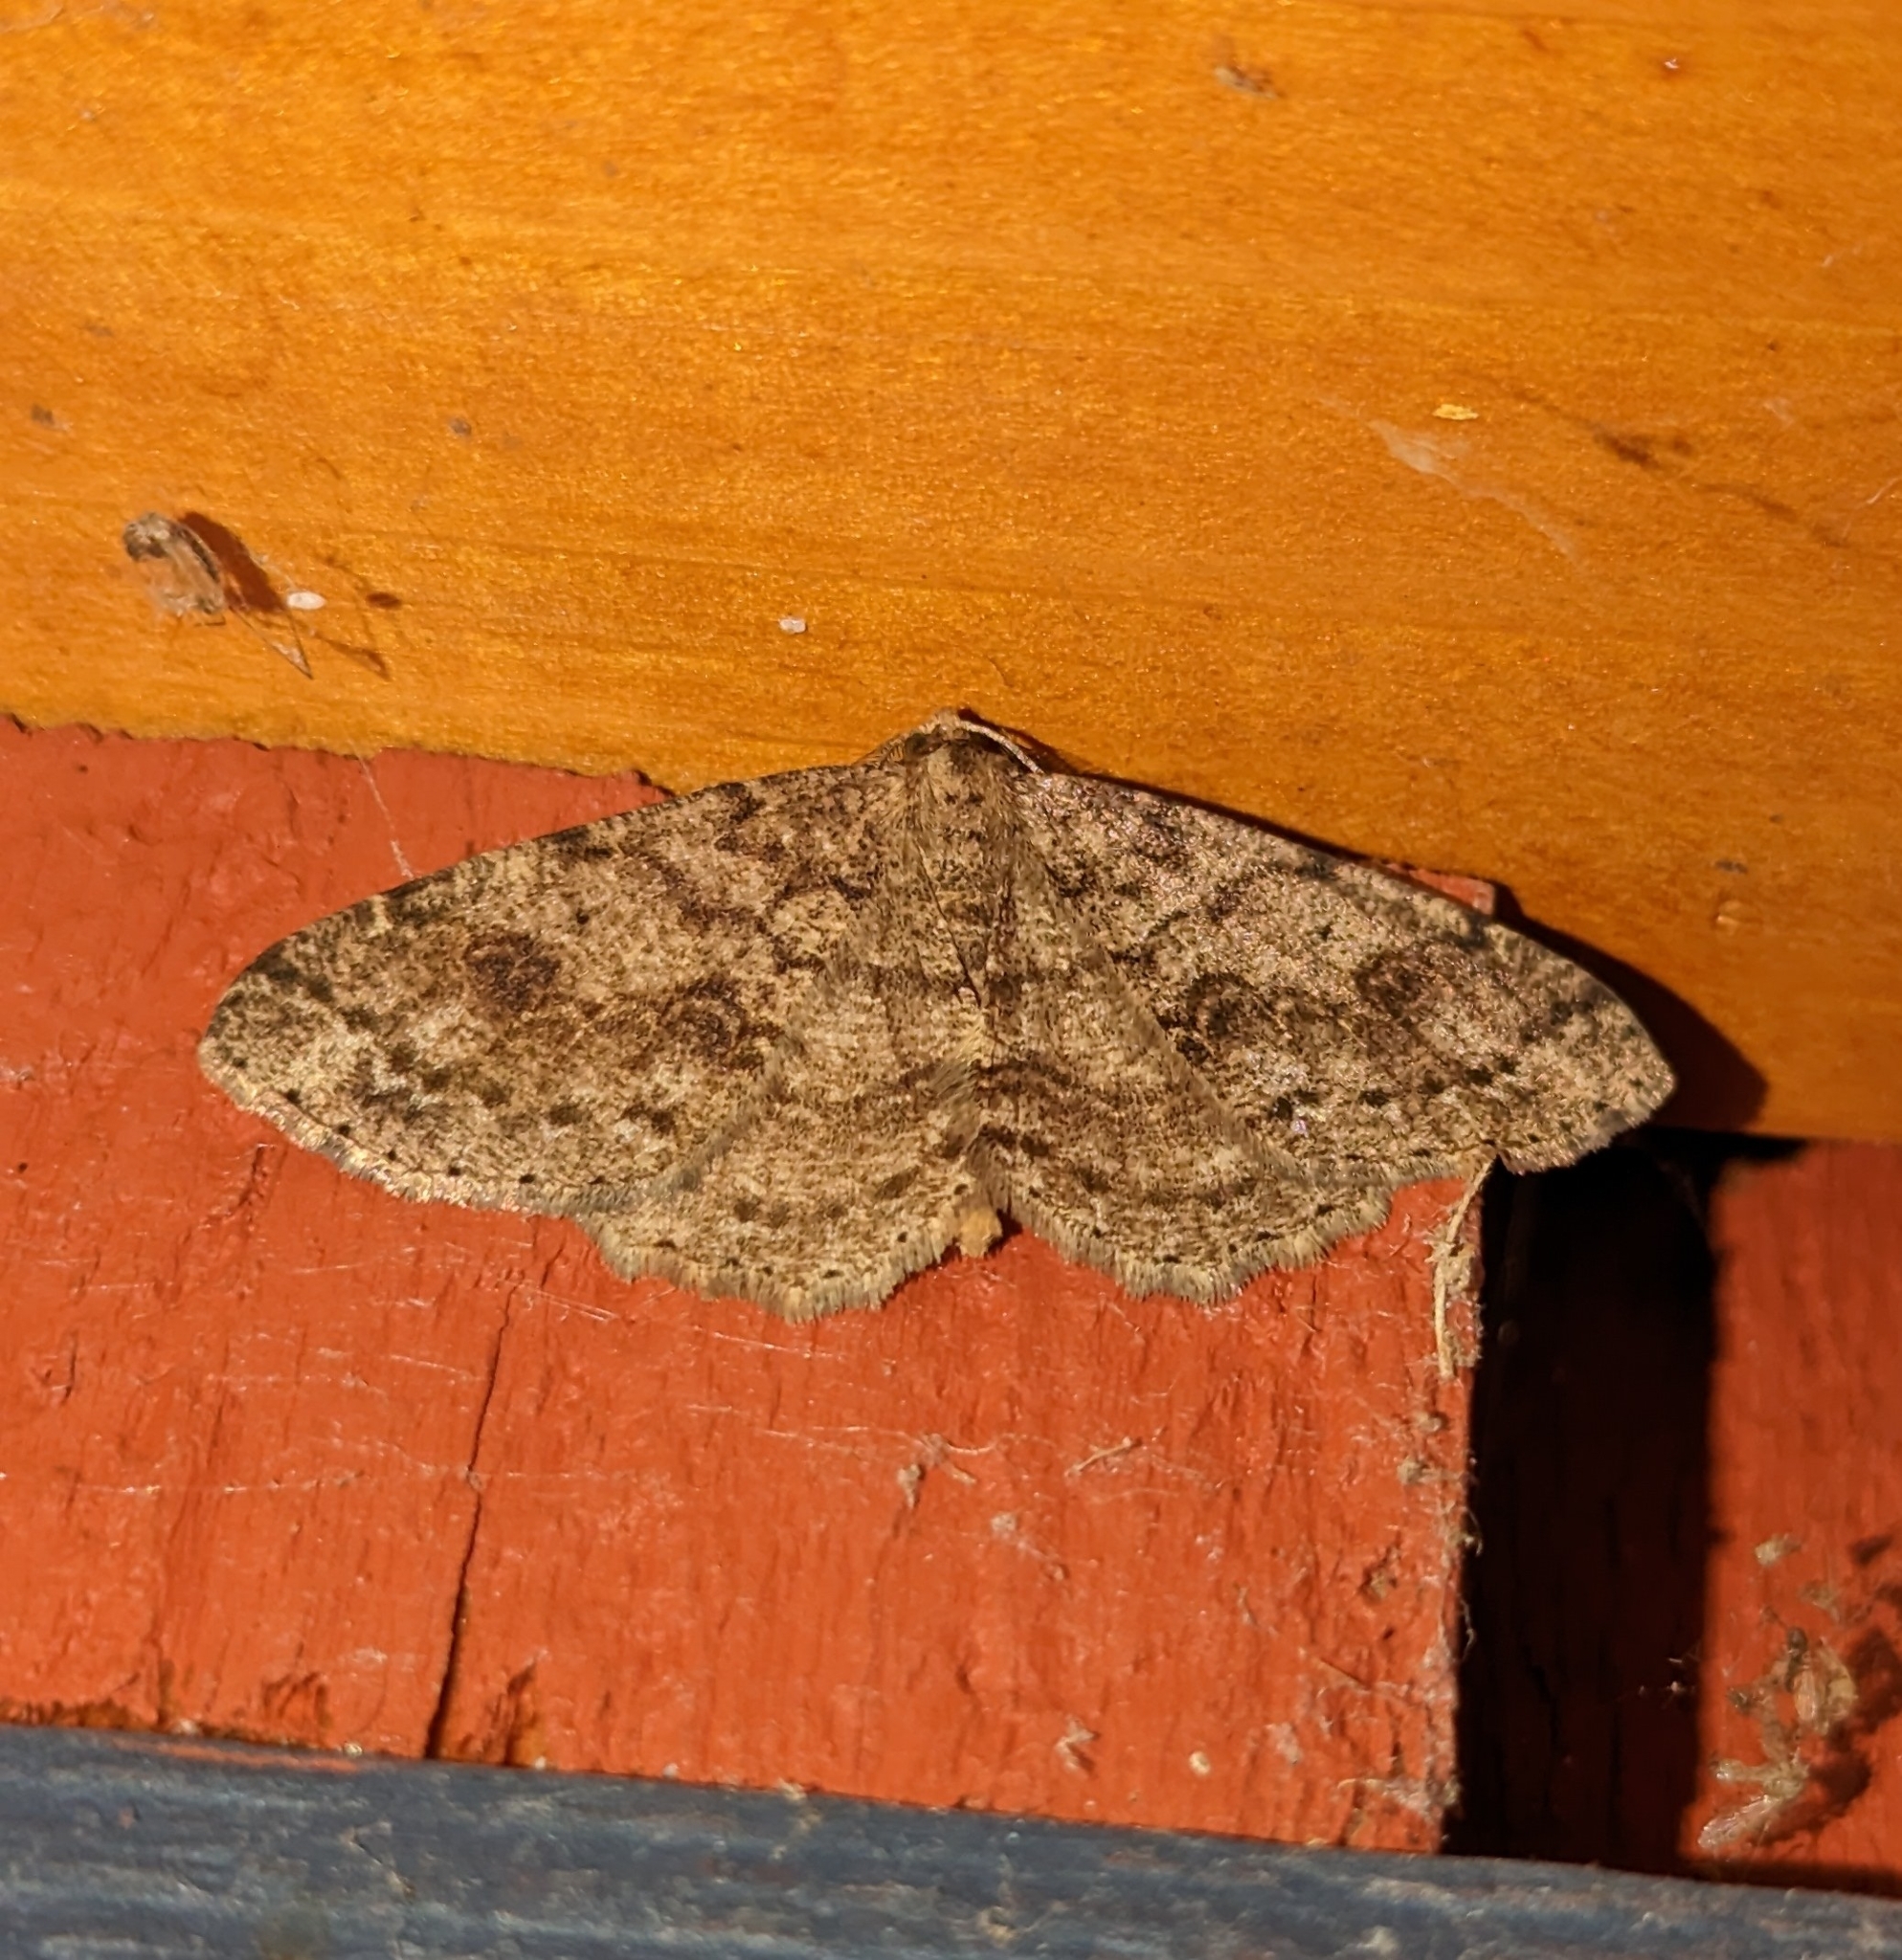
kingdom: Animalia
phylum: Arthropoda
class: Insecta
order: Lepidoptera
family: Geometridae
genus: Melanolophia
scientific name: Melanolophia imitata
